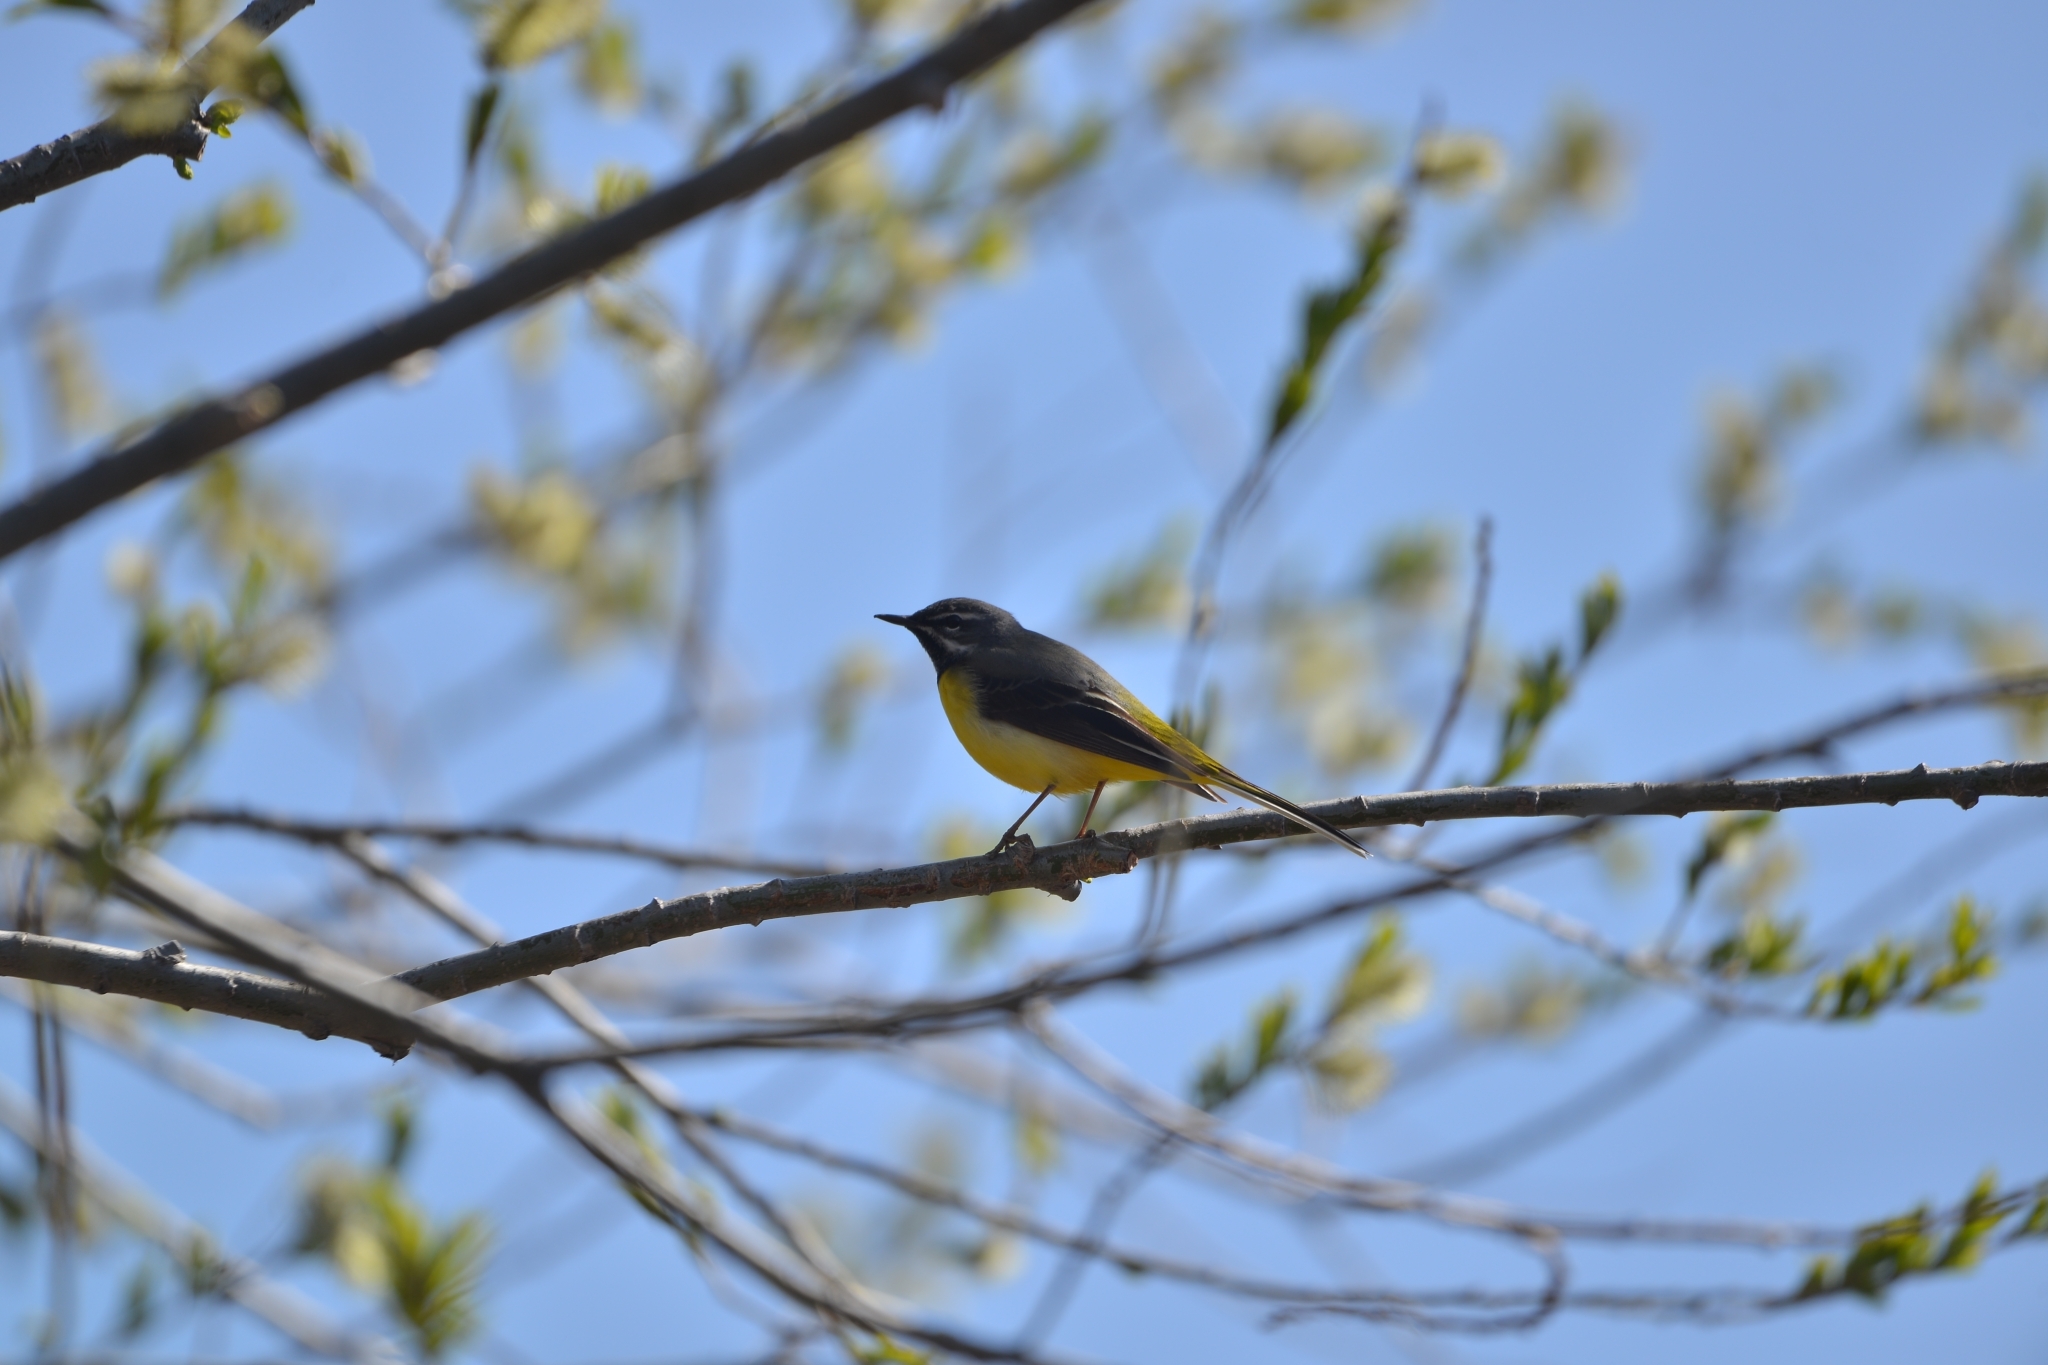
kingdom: Animalia
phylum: Chordata
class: Aves
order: Passeriformes
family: Motacillidae
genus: Motacilla
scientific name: Motacilla cinerea
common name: Grey wagtail
